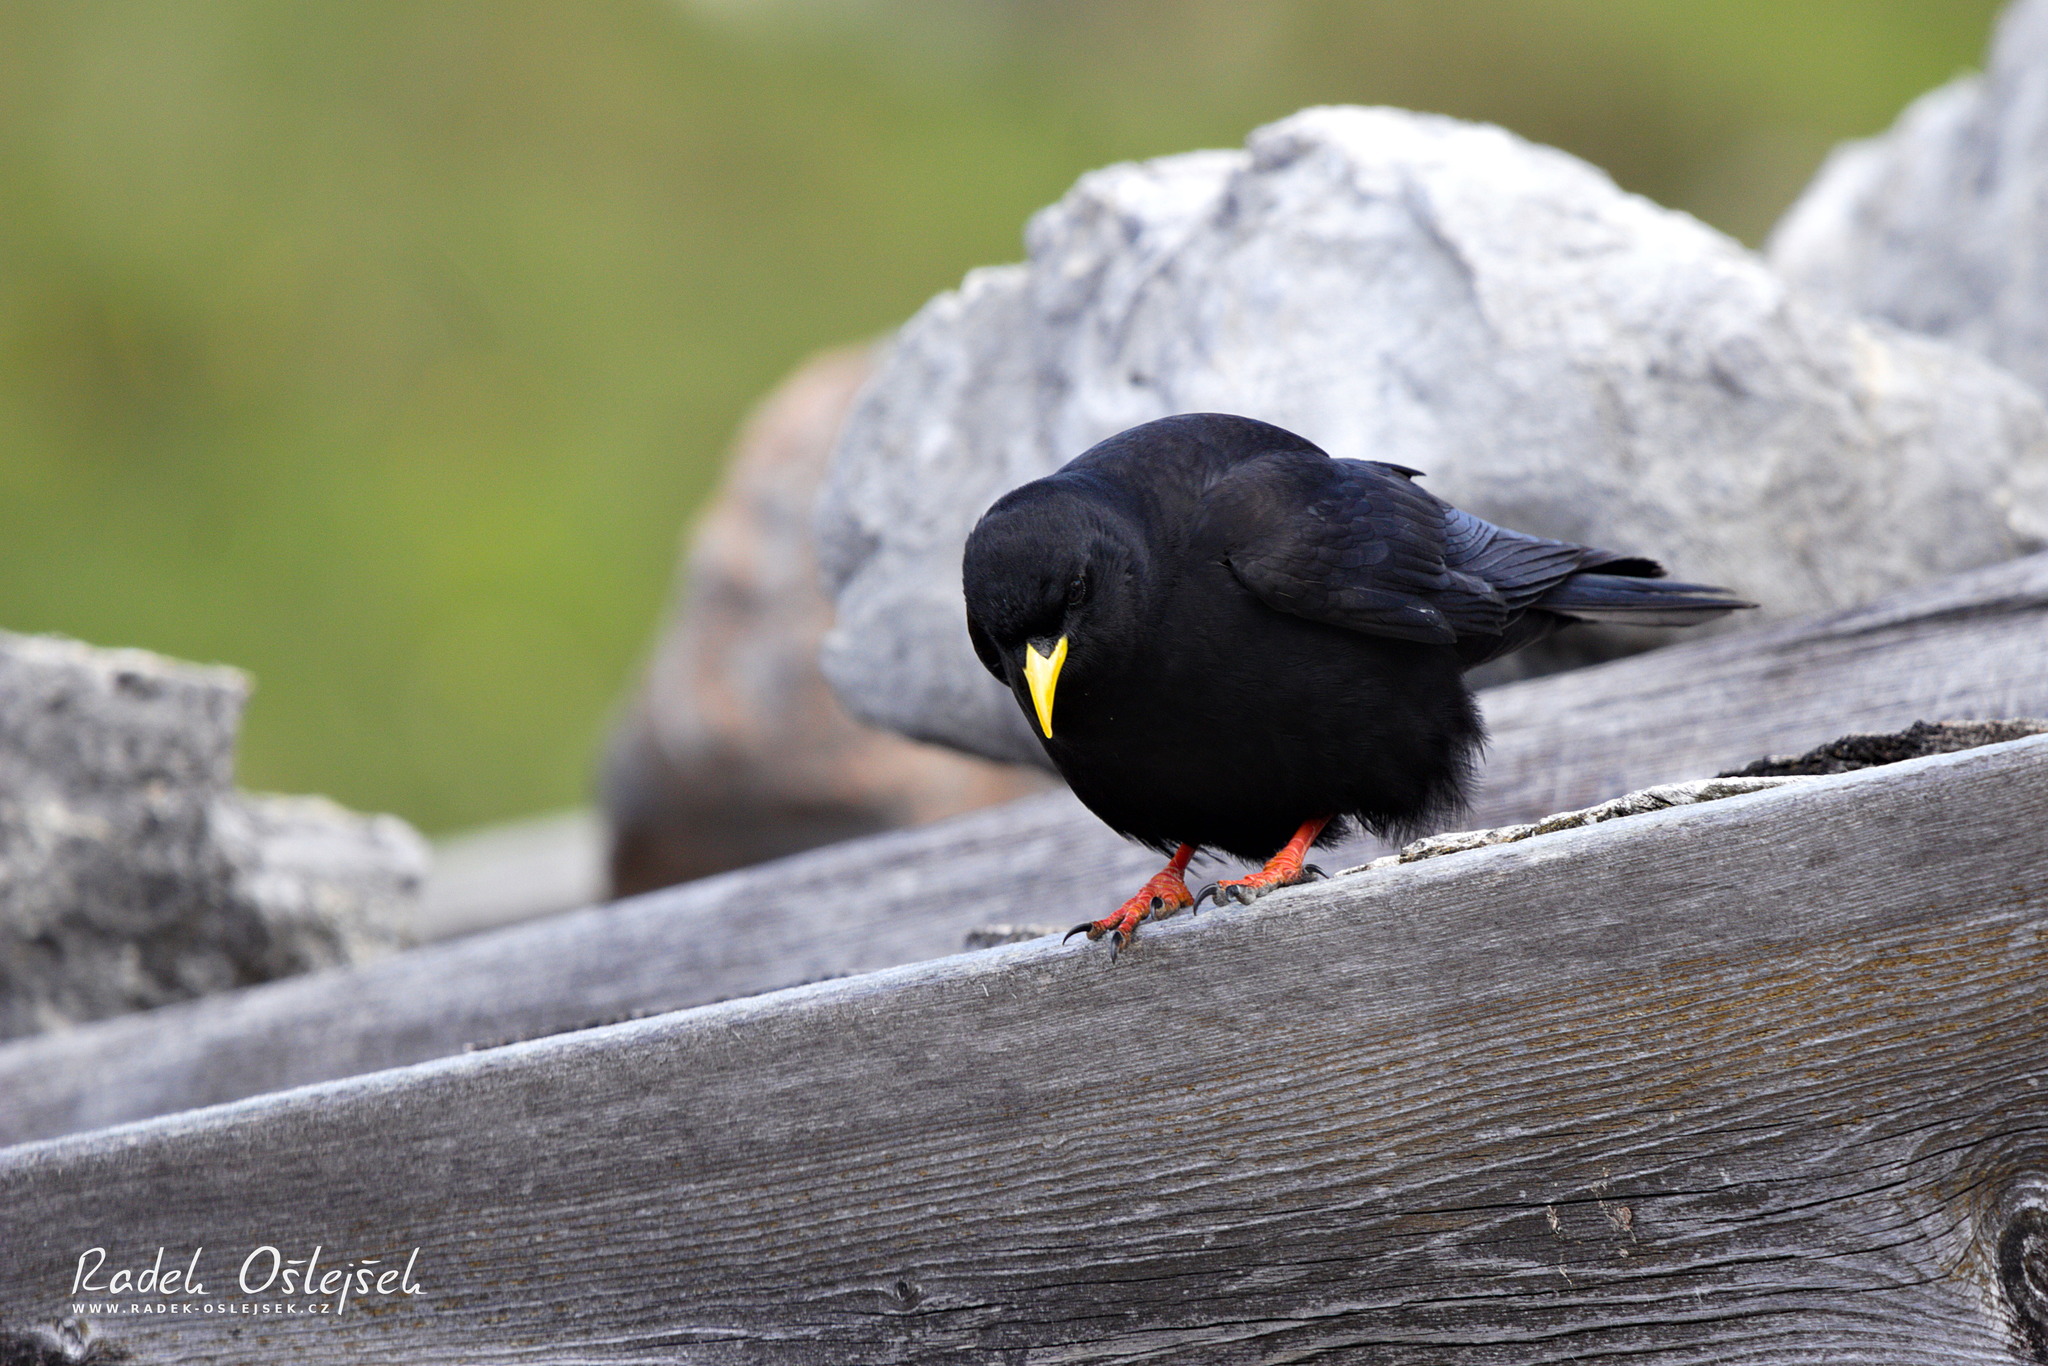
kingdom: Animalia
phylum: Chordata
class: Aves
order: Passeriformes
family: Corvidae
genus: Pyrrhocorax
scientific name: Pyrrhocorax graculus
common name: Alpine chough
